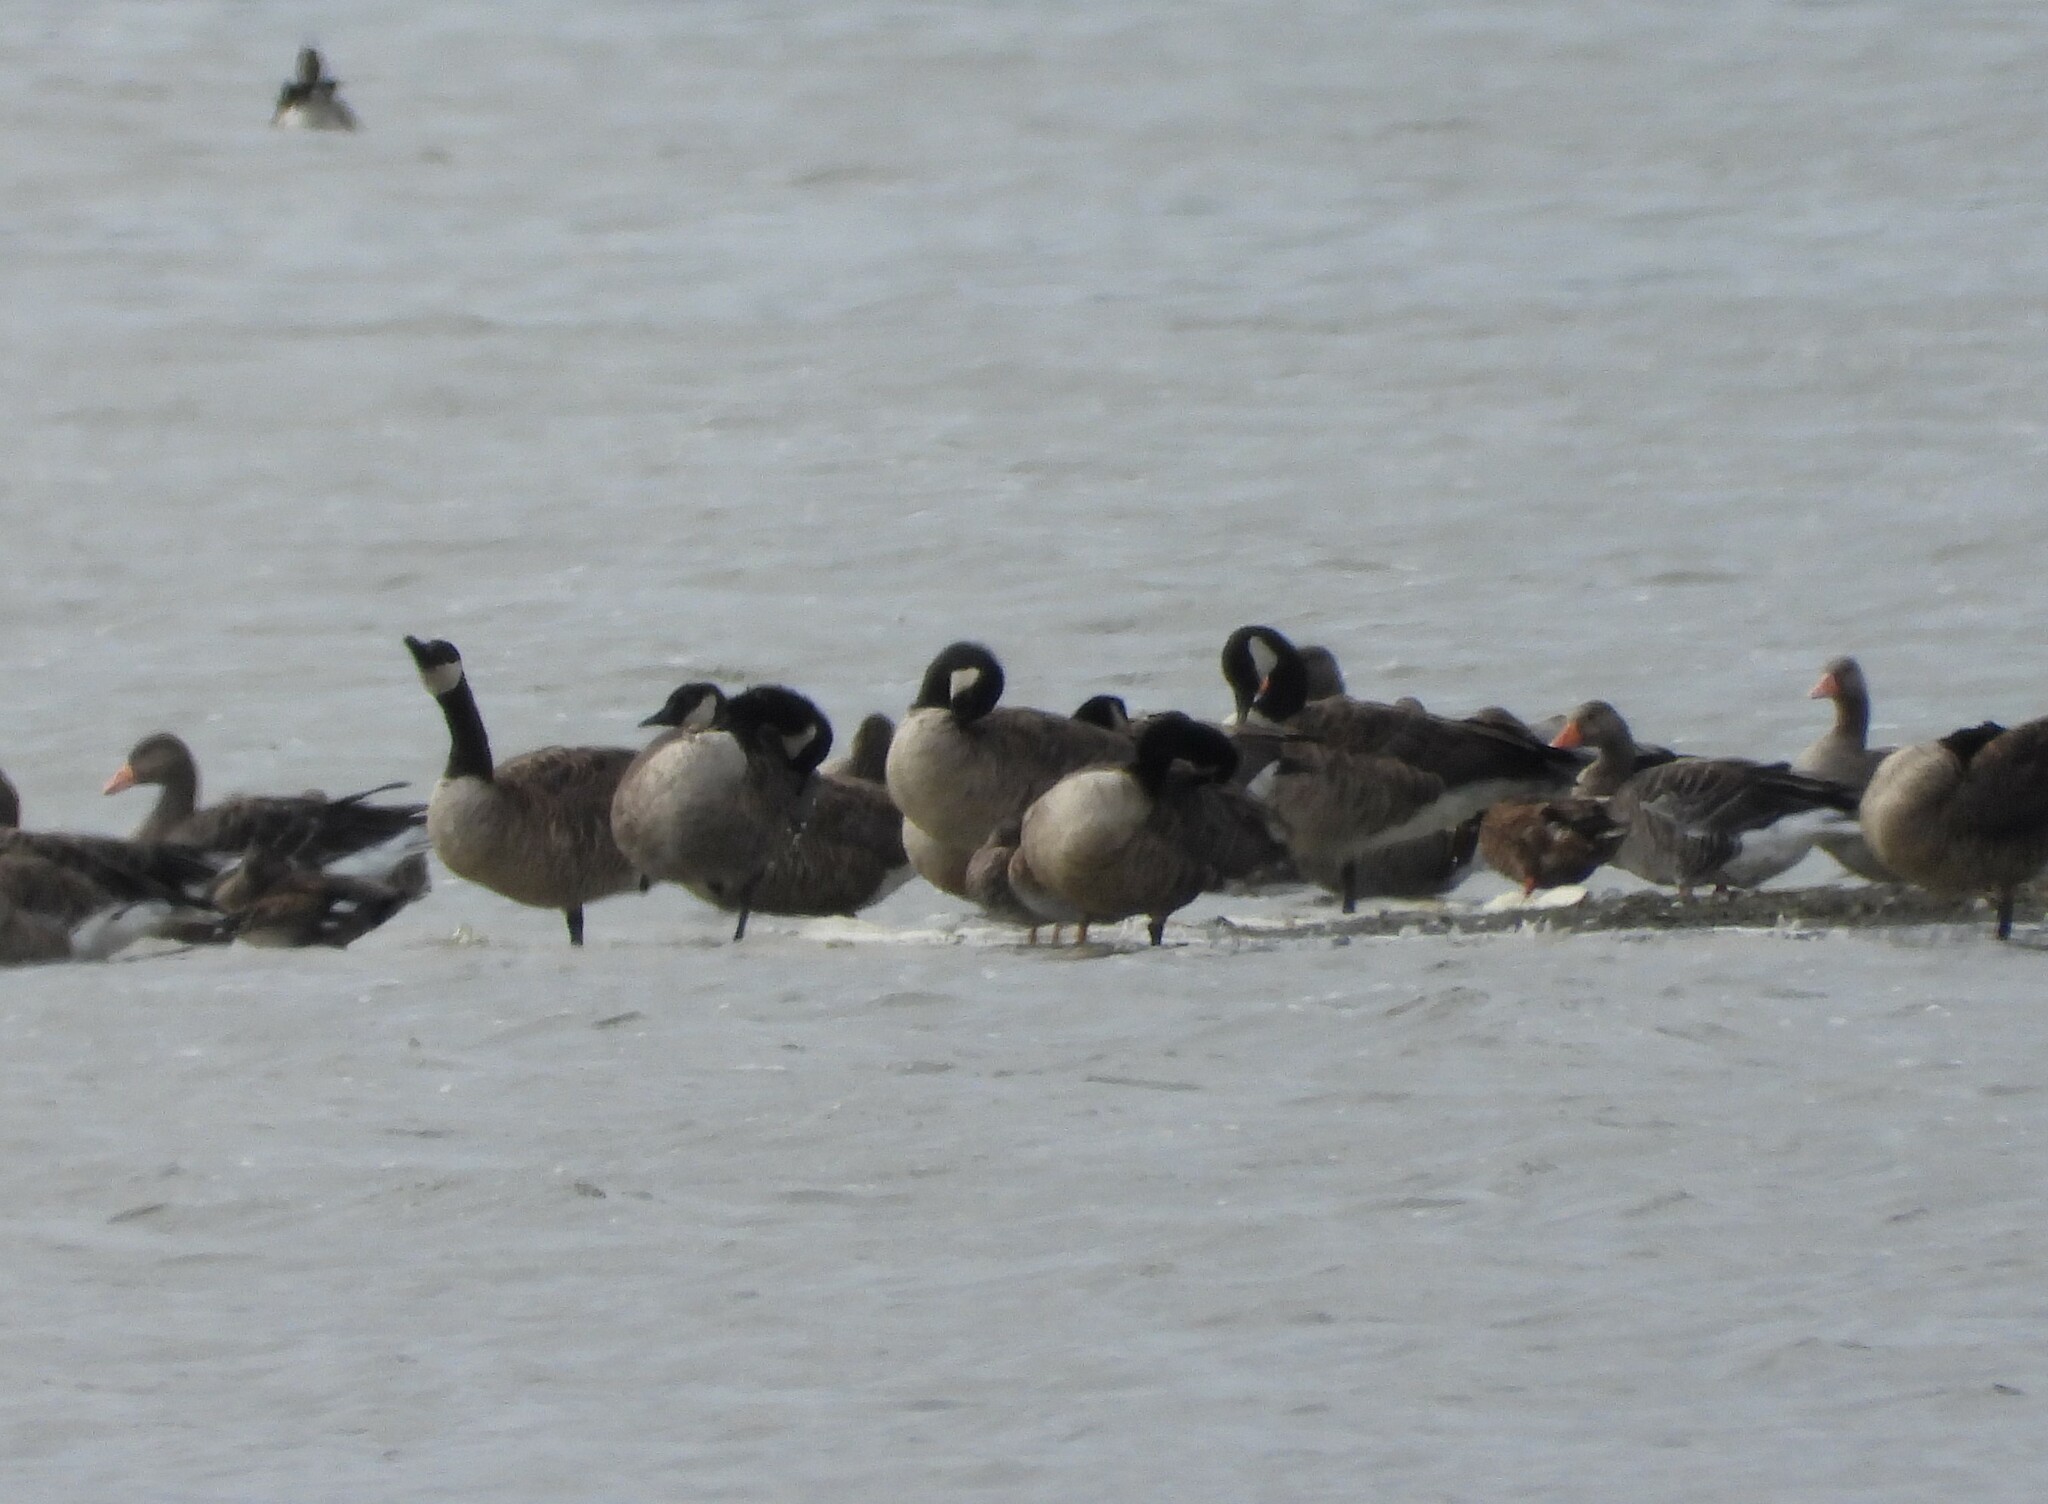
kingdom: Animalia
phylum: Chordata
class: Aves
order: Anseriformes
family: Anatidae
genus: Branta
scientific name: Branta canadensis
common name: Canada goose
